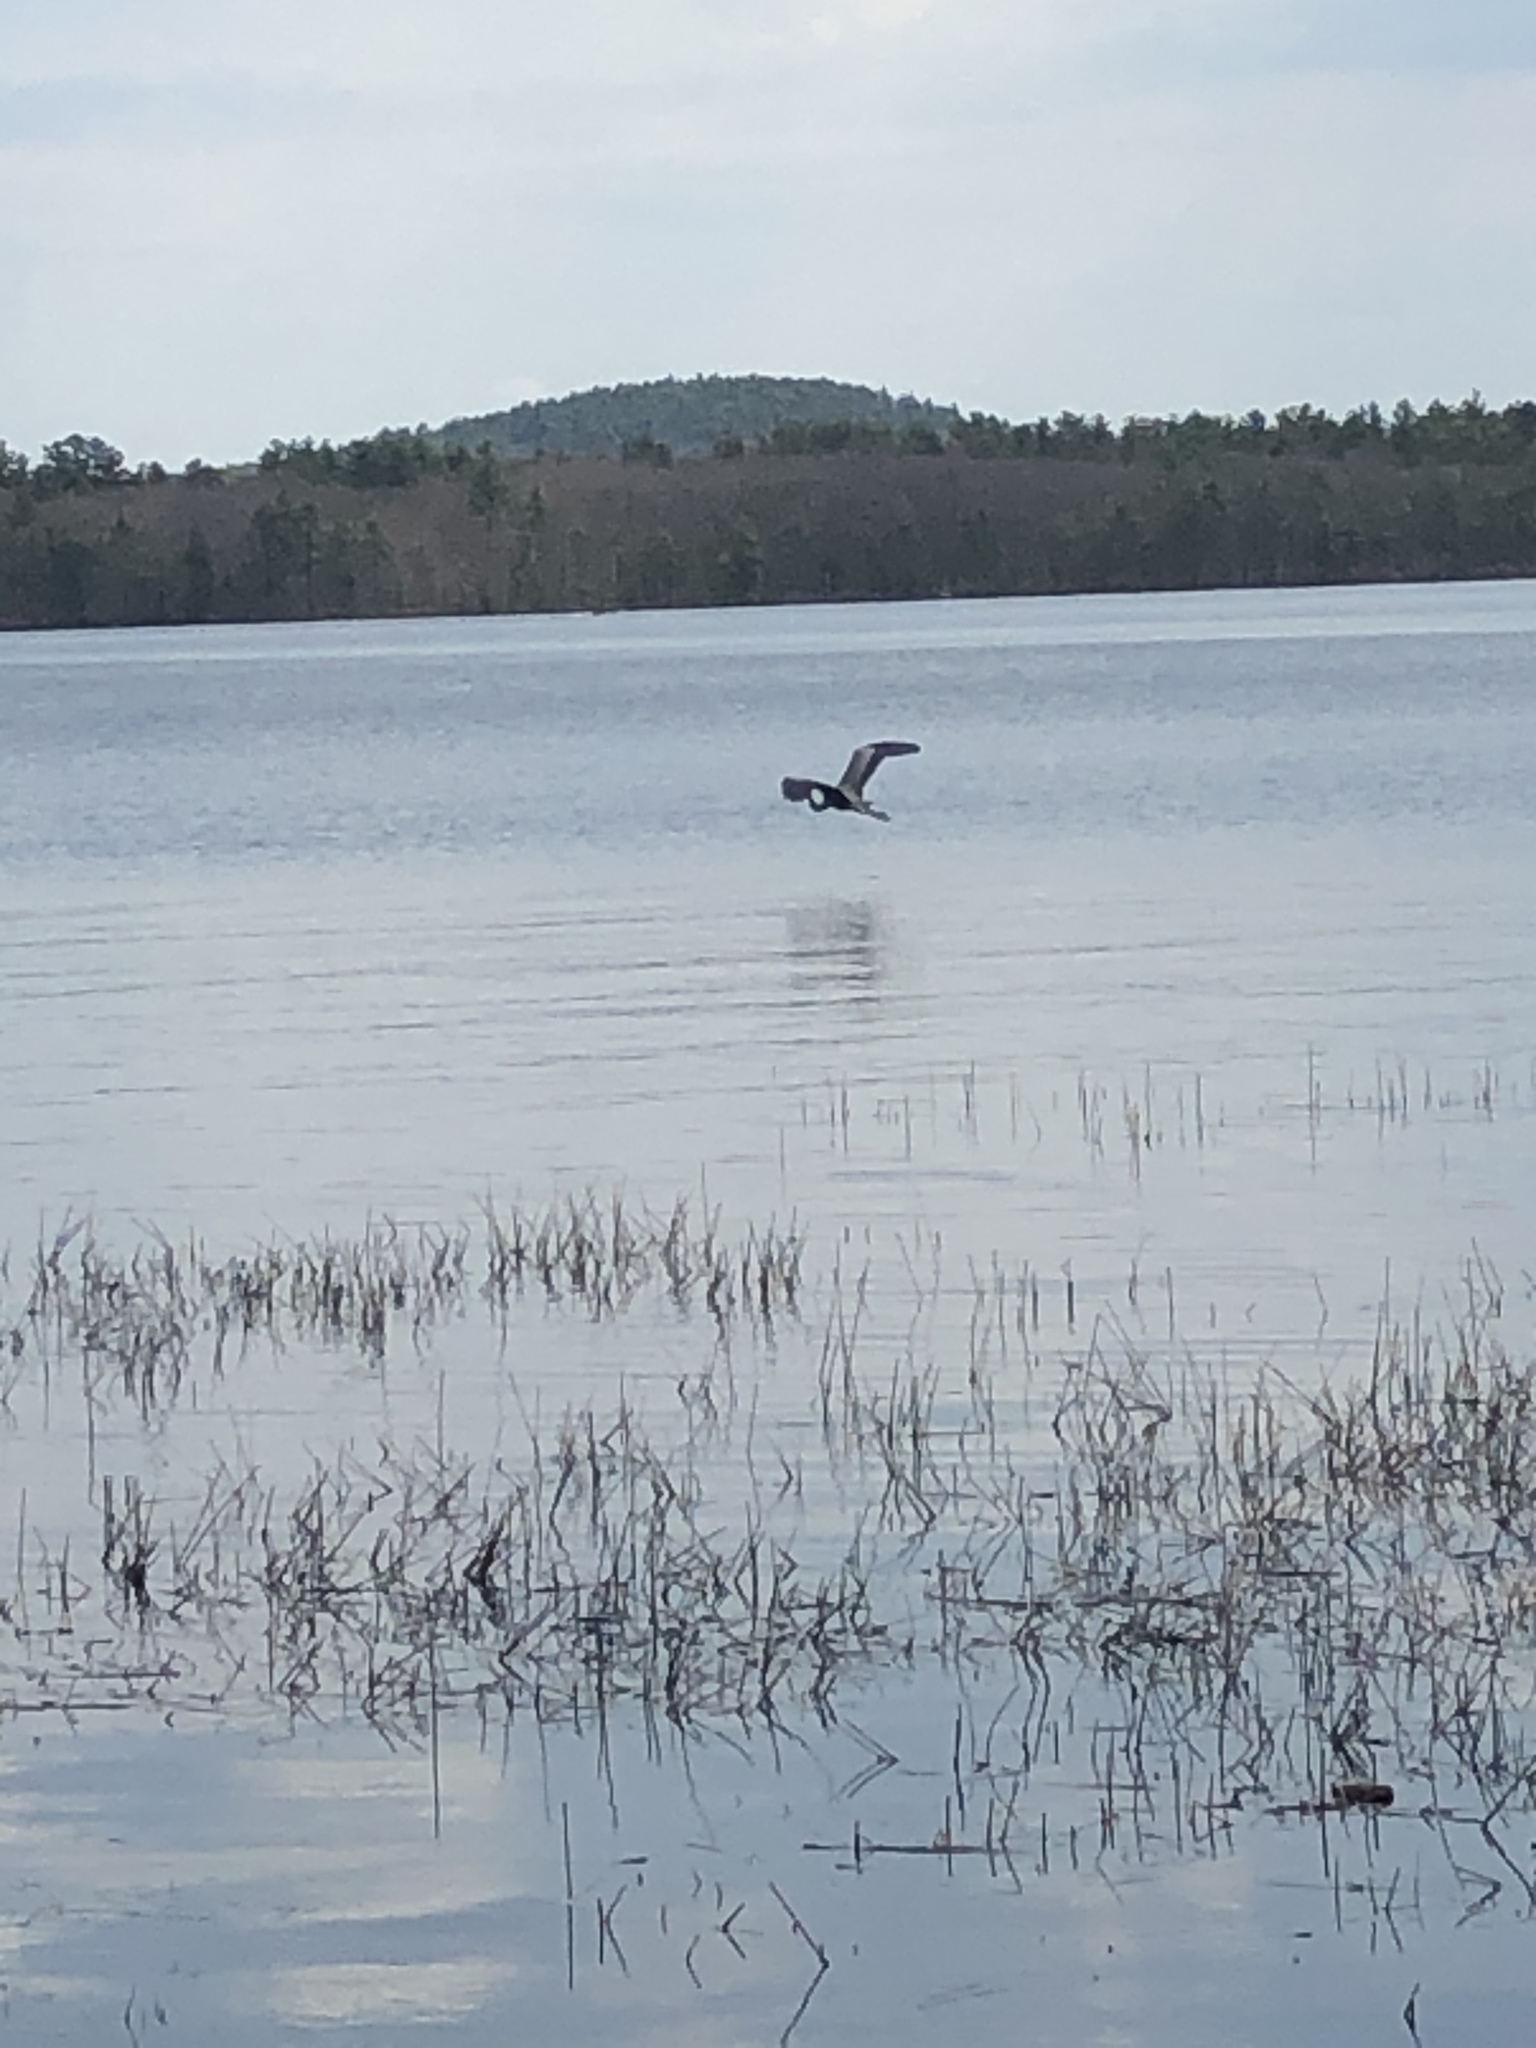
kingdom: Animalia
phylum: Chordata
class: Aves
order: Pelecaniformes
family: Ardeidae
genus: Ardea
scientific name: Ardea herodias
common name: Great blue heron
